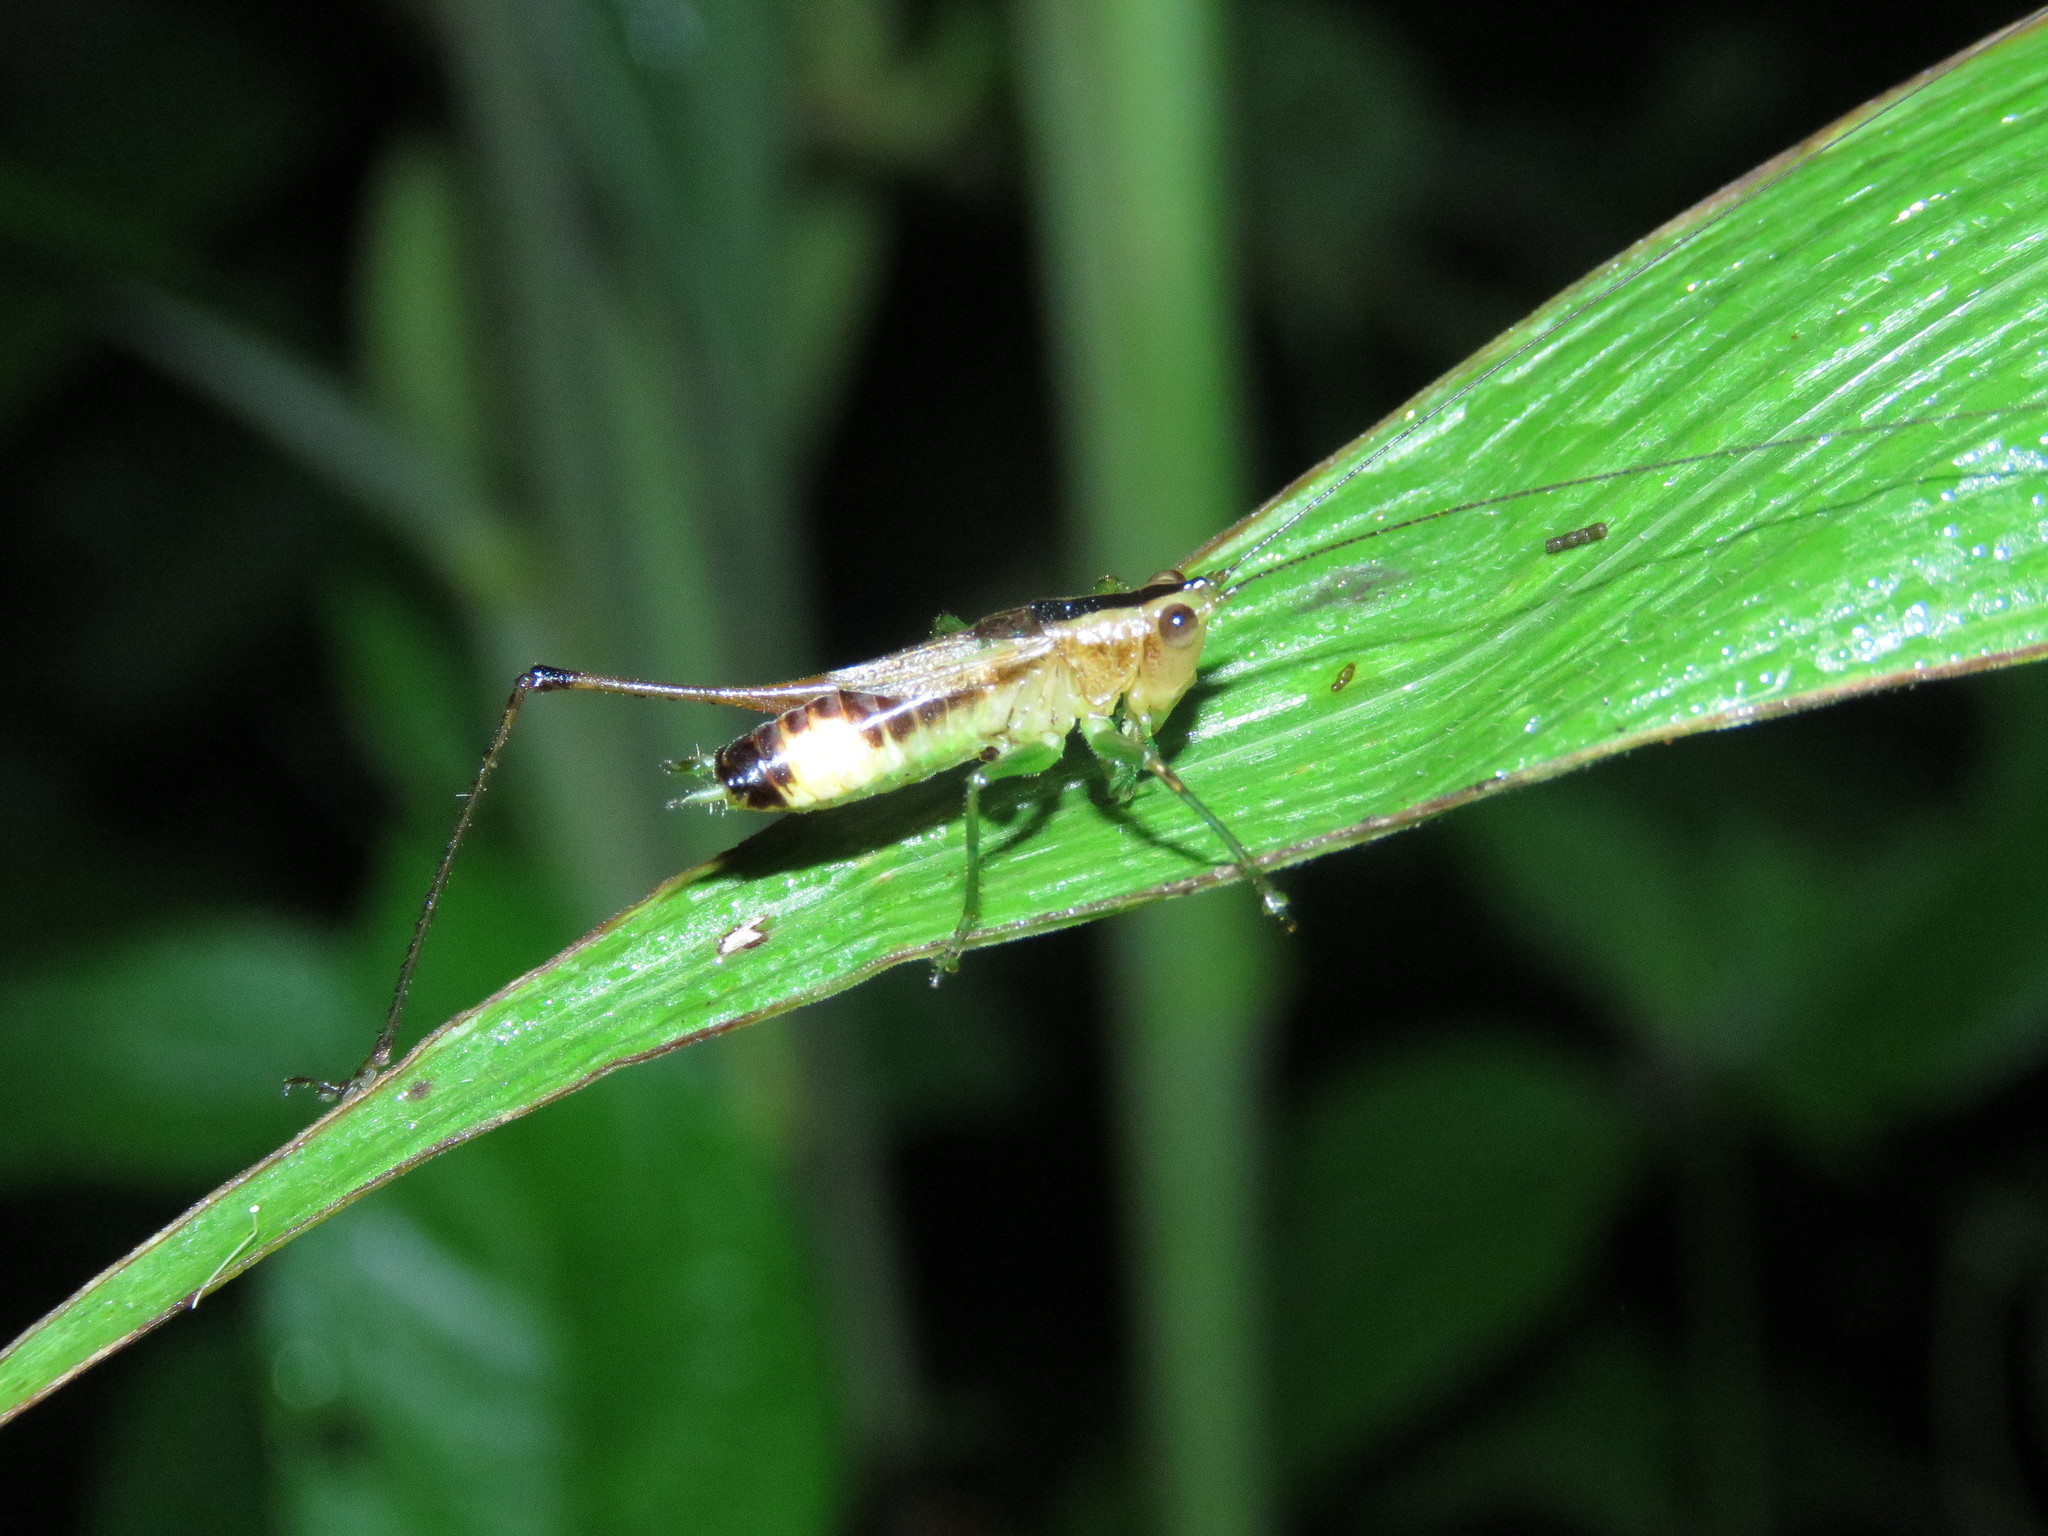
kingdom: Animalia
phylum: Arthropoda
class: Insecta
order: Orthoptera
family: Tettigoniidae
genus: Conocephalus
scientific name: Conocephalus versicolor
